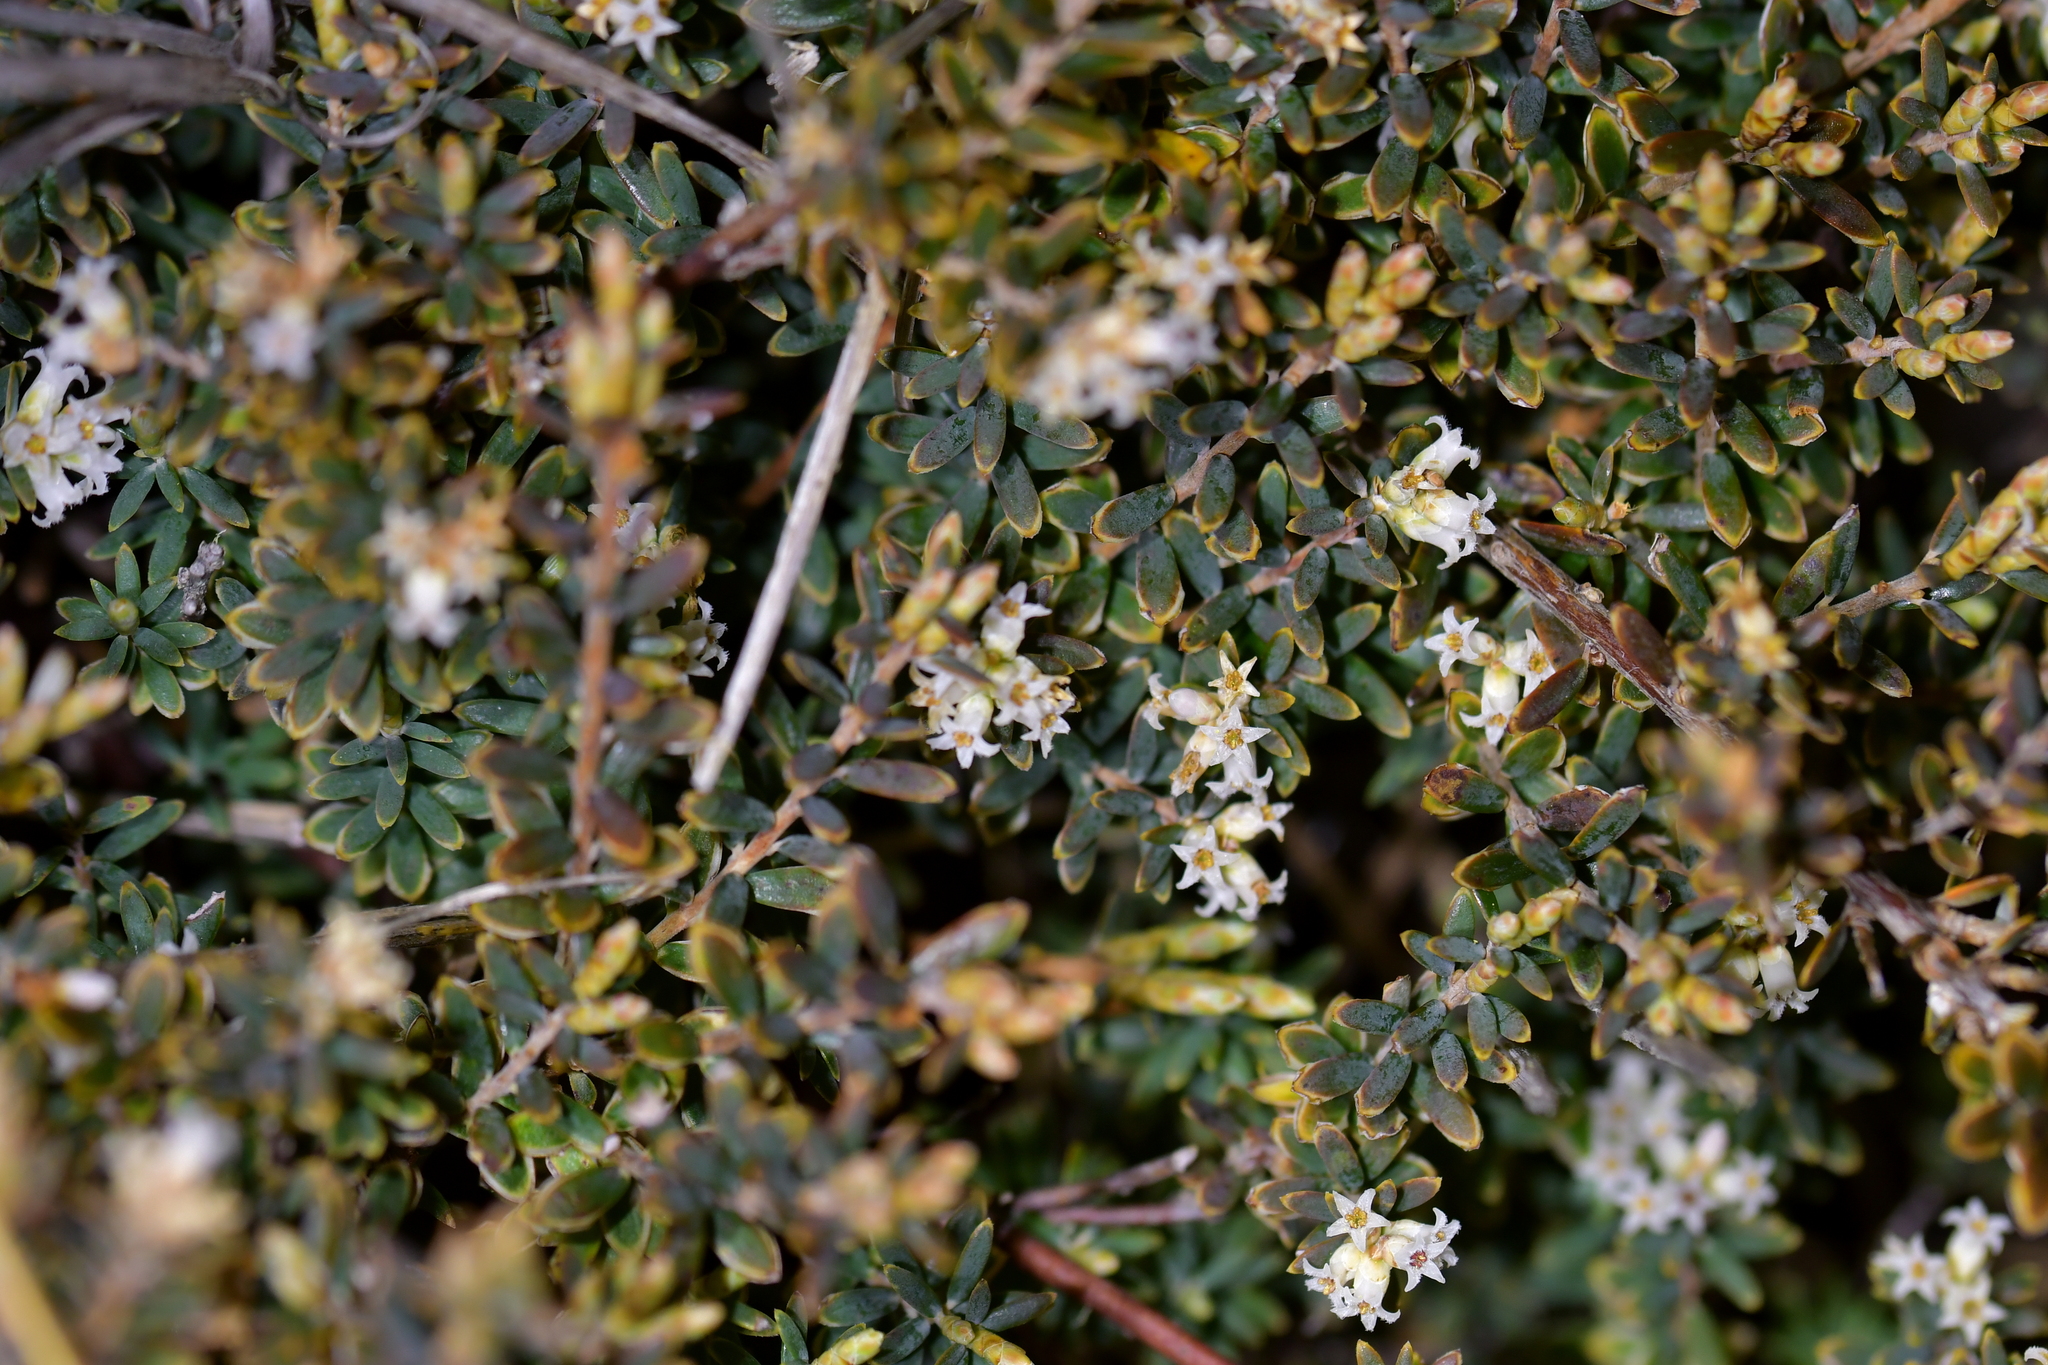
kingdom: Plantae
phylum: Tracheophyta
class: Magnoliopsida
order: Ericales
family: Ericaceae
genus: Acrothamnus
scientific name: Acrothamnus colensoi
